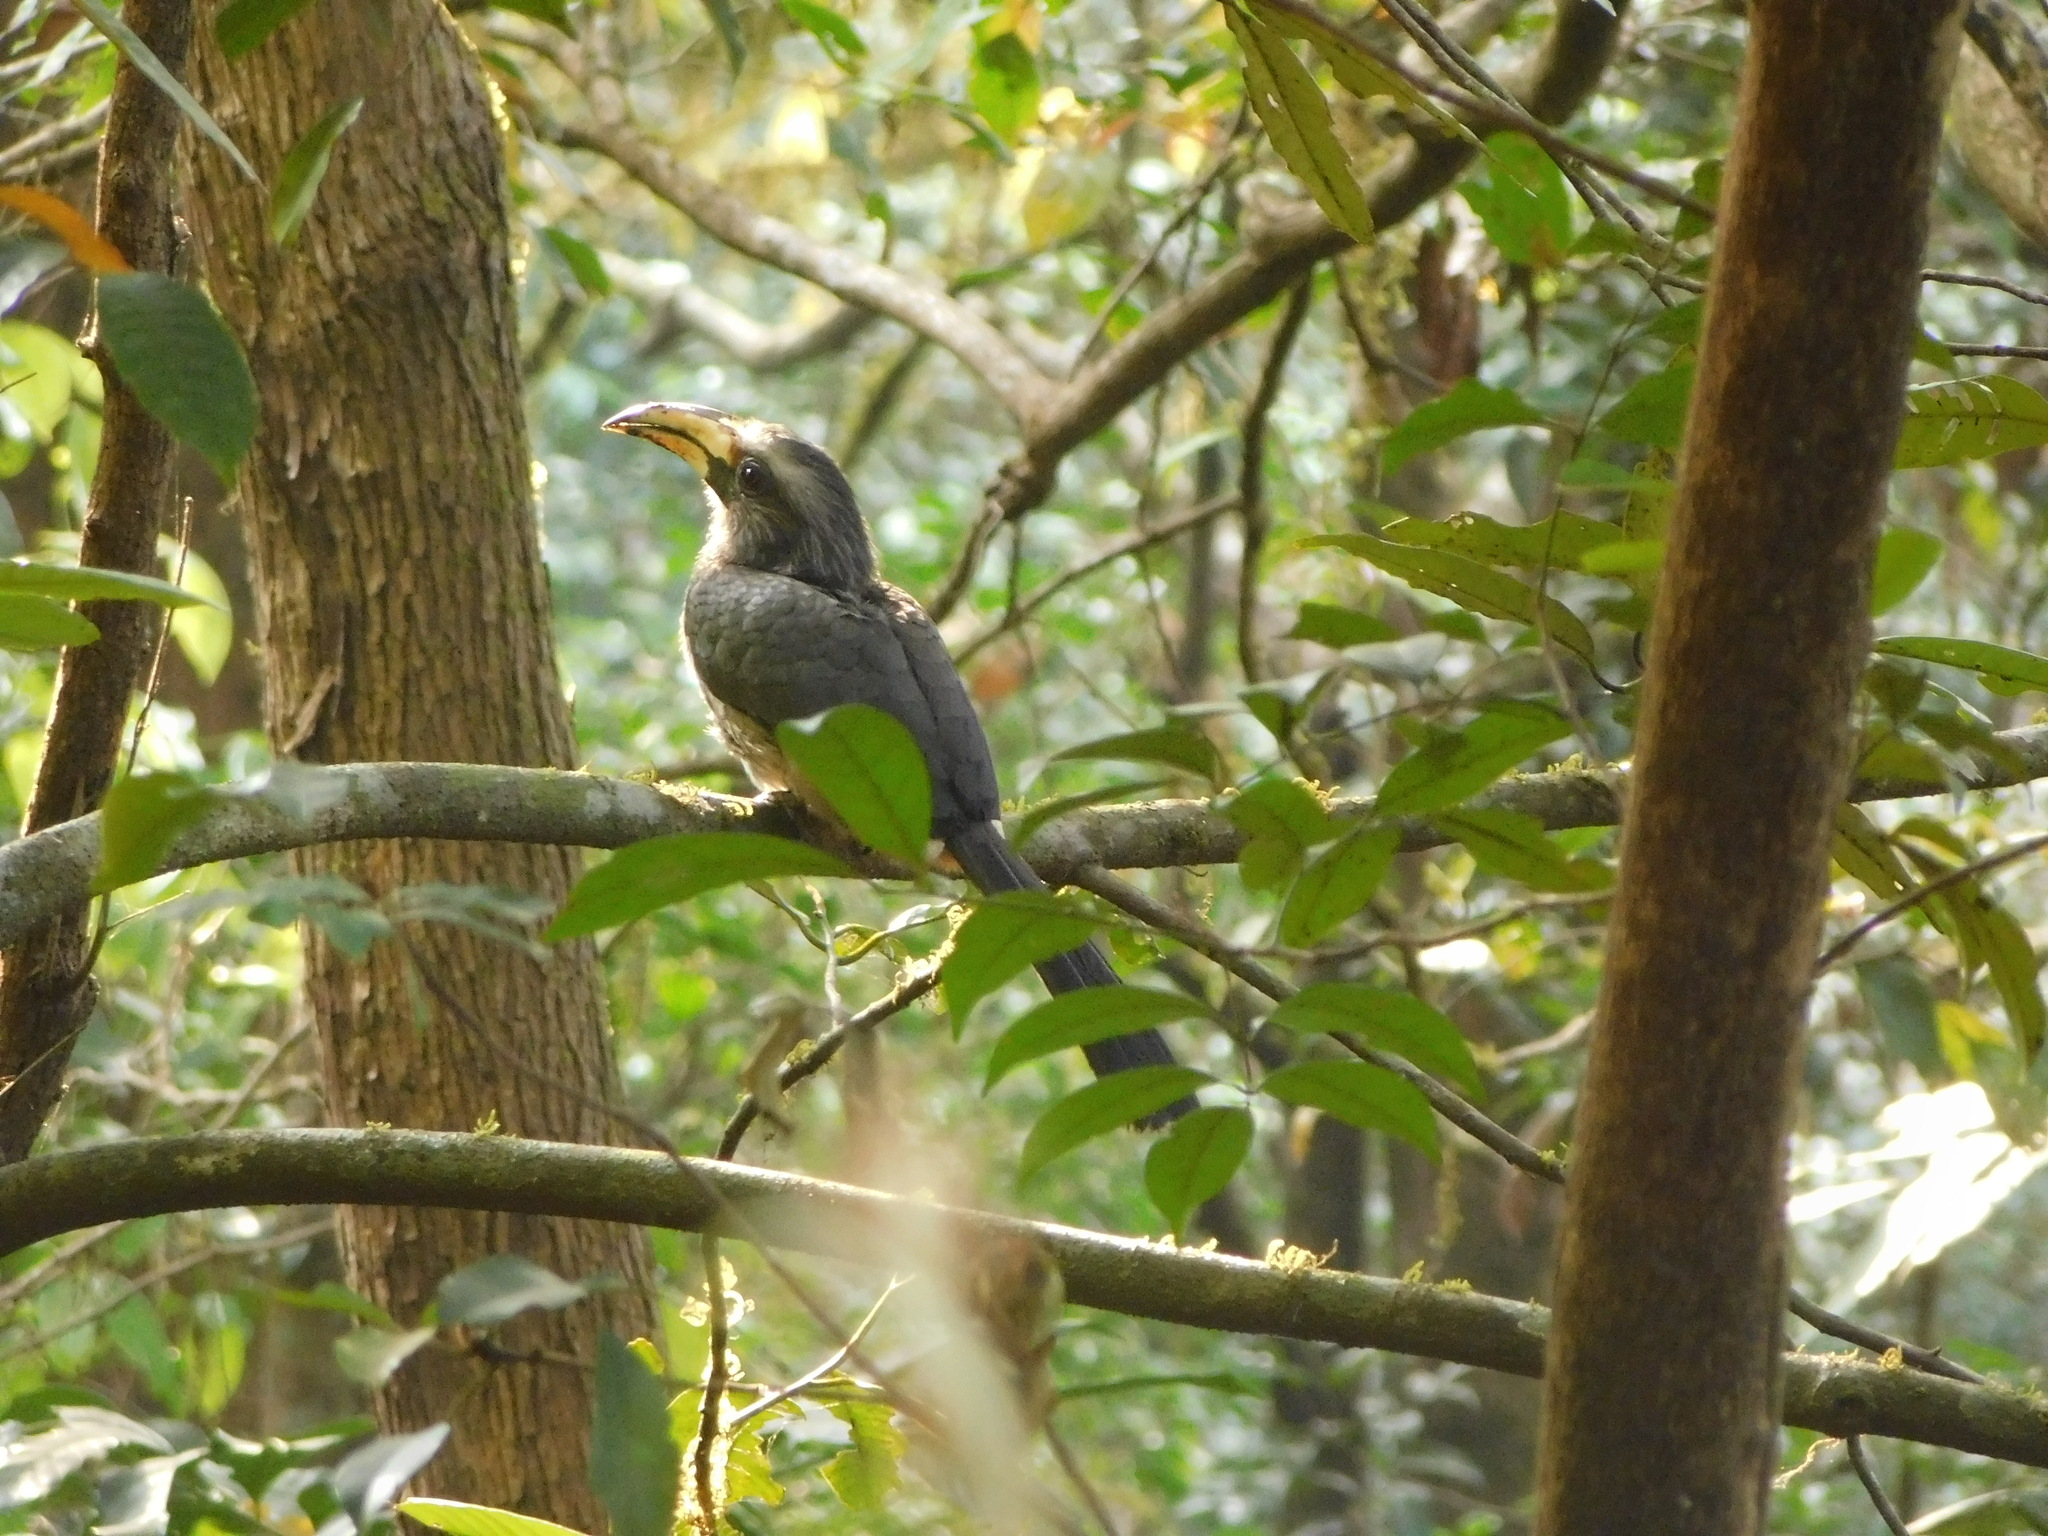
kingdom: Animalia
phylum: Chordata
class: Aves
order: Bucerotiformes
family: Bucerotidae
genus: Ocyceros
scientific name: Ocyceros griseus
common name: Malabar grey hornbill
